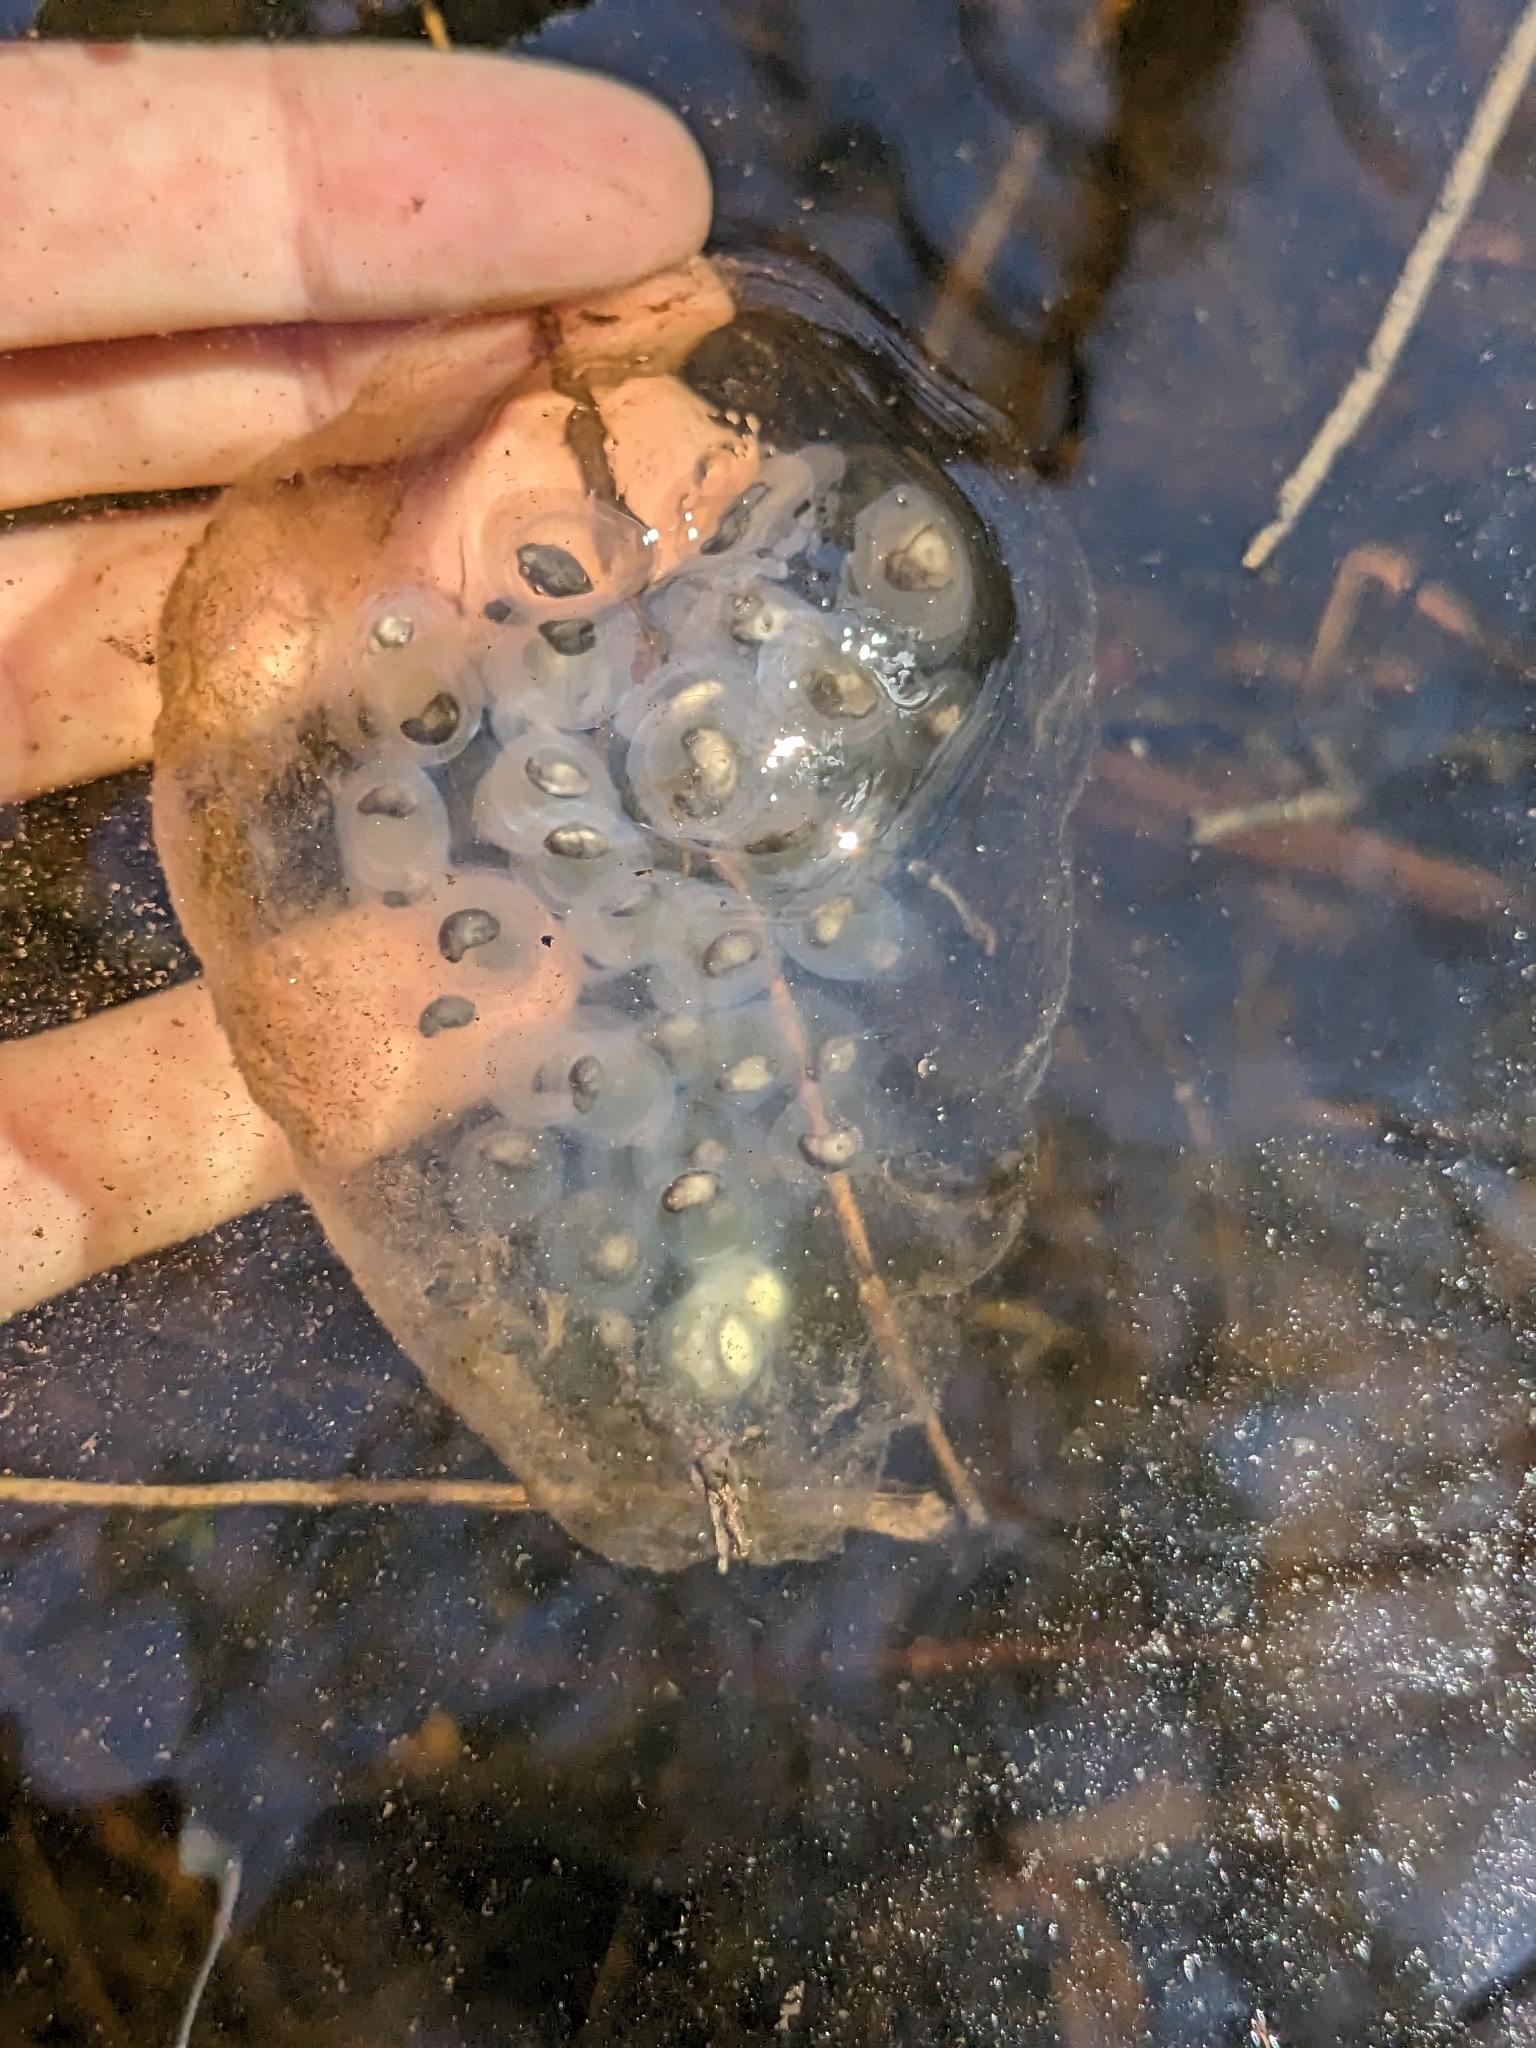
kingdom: Animalia
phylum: Chordata
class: Amphibia
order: Caudata
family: Ambystomatidae
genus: Ambystoma
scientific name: Ambystoma maculatum
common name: Spotted salamander
